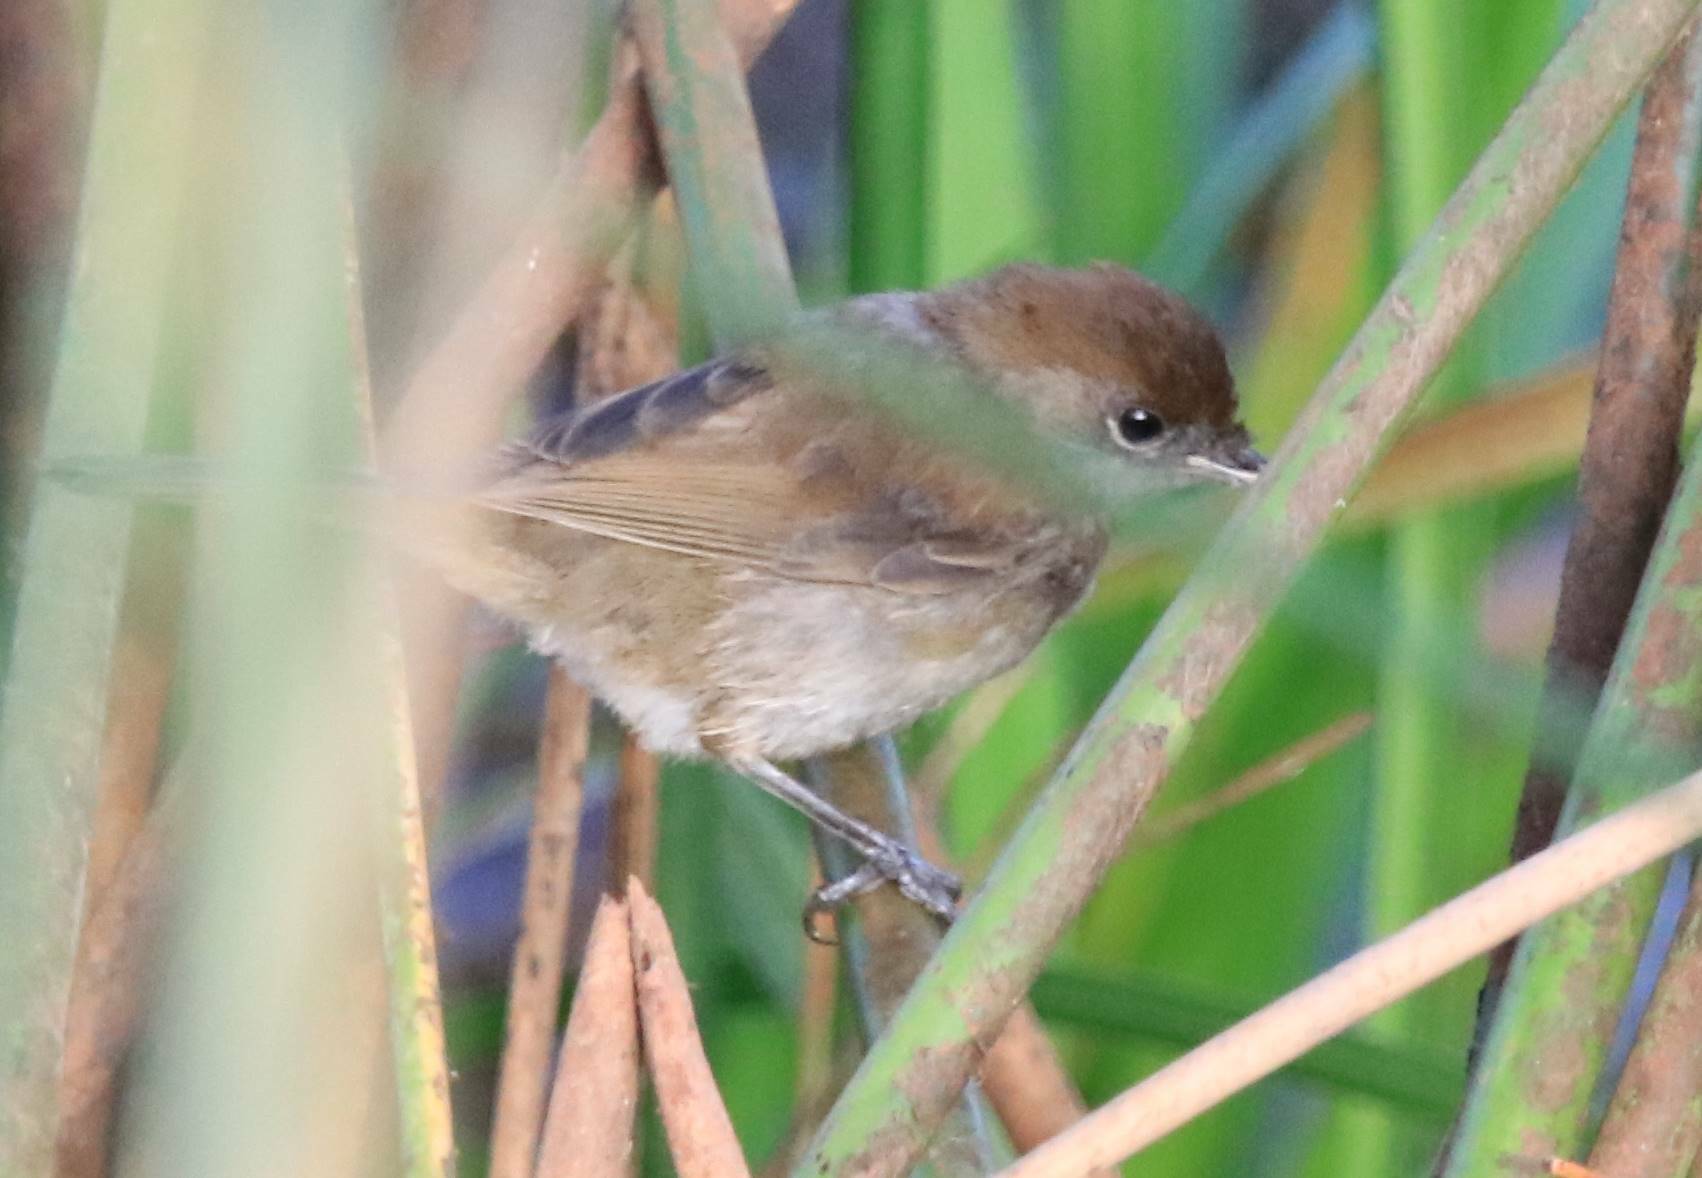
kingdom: Animalia
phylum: Chordata
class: Aves
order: Passeriformes
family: Sylviidae
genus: Sylvia
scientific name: Sylvia atricapilla
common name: Eurasian blackcap
